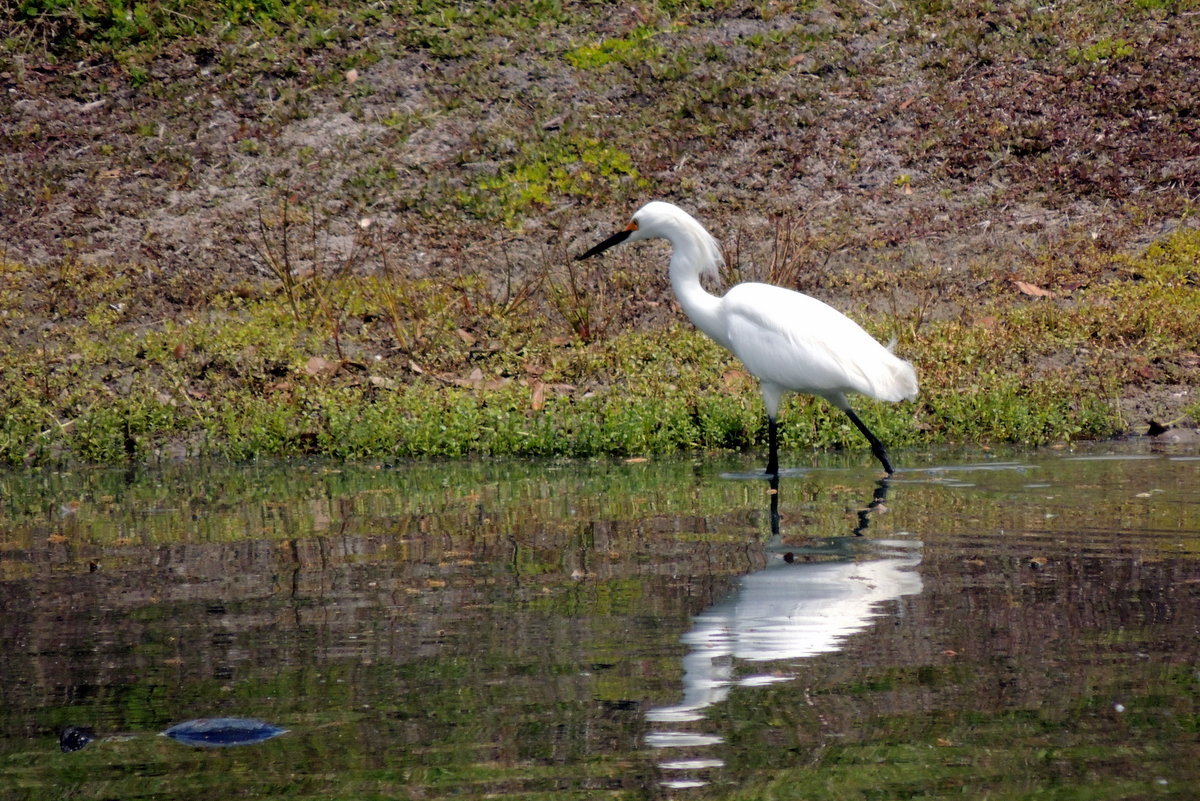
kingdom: Animalia
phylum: Chordata
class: Aves
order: Pelecaniformes
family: Ardeidae
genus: Egretta
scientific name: Egretta thula
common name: Snowy egret
